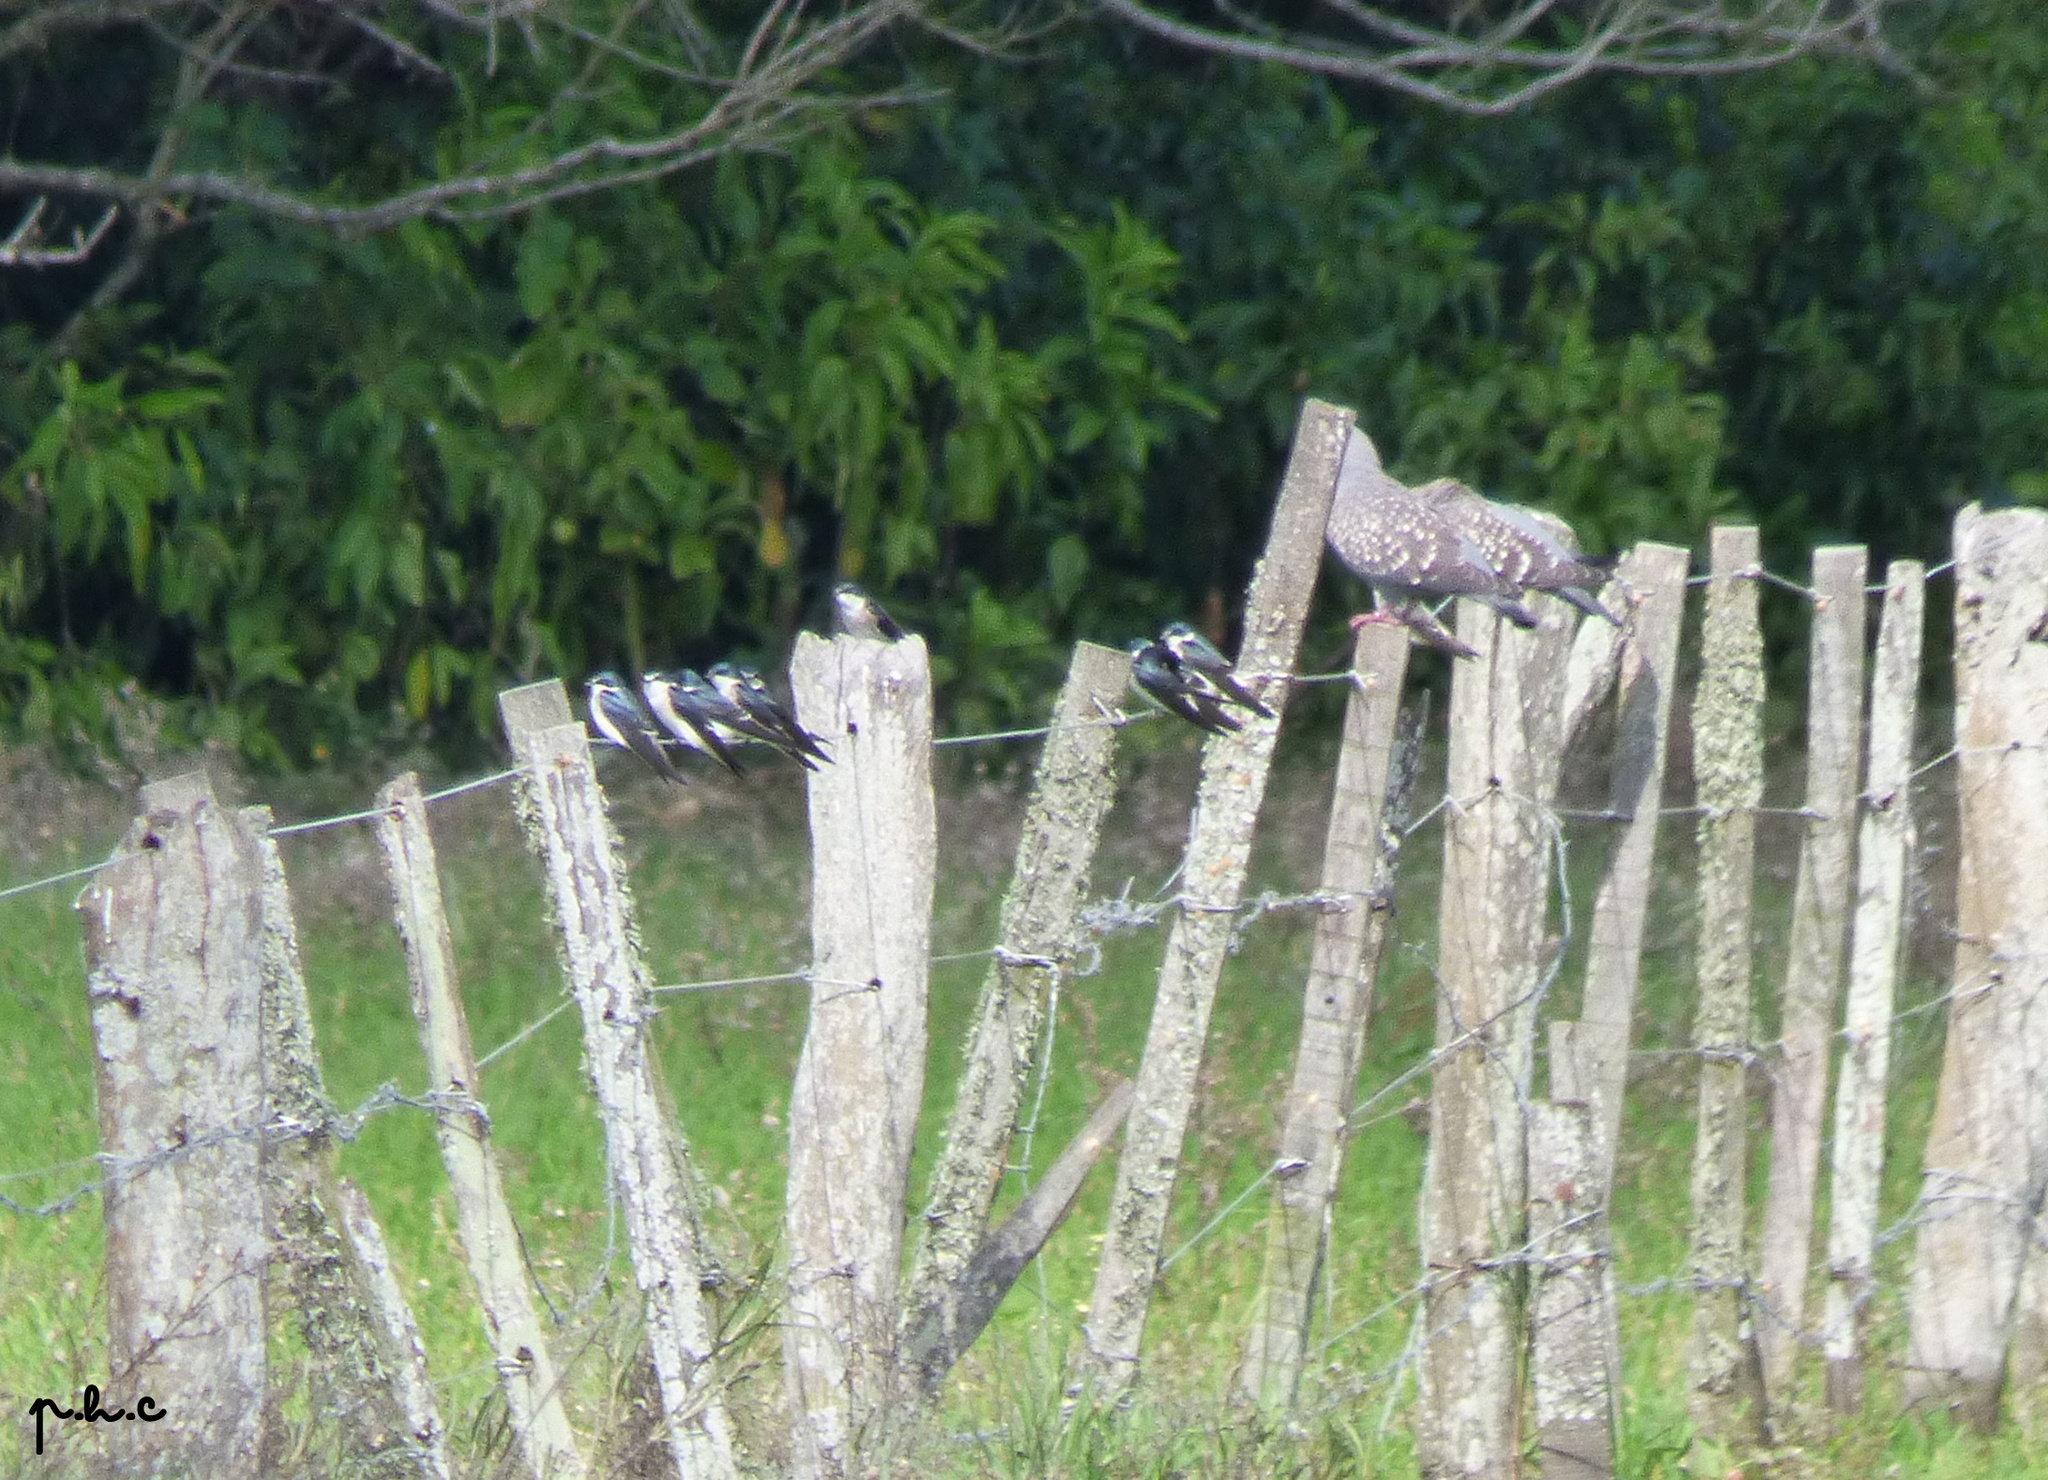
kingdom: Animalia
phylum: Chordata
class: Aves
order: Passeriformes
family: Hirundinidae
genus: Tachycineta
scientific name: Tachycineta leucorrhoa
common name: White-rumped swallow
